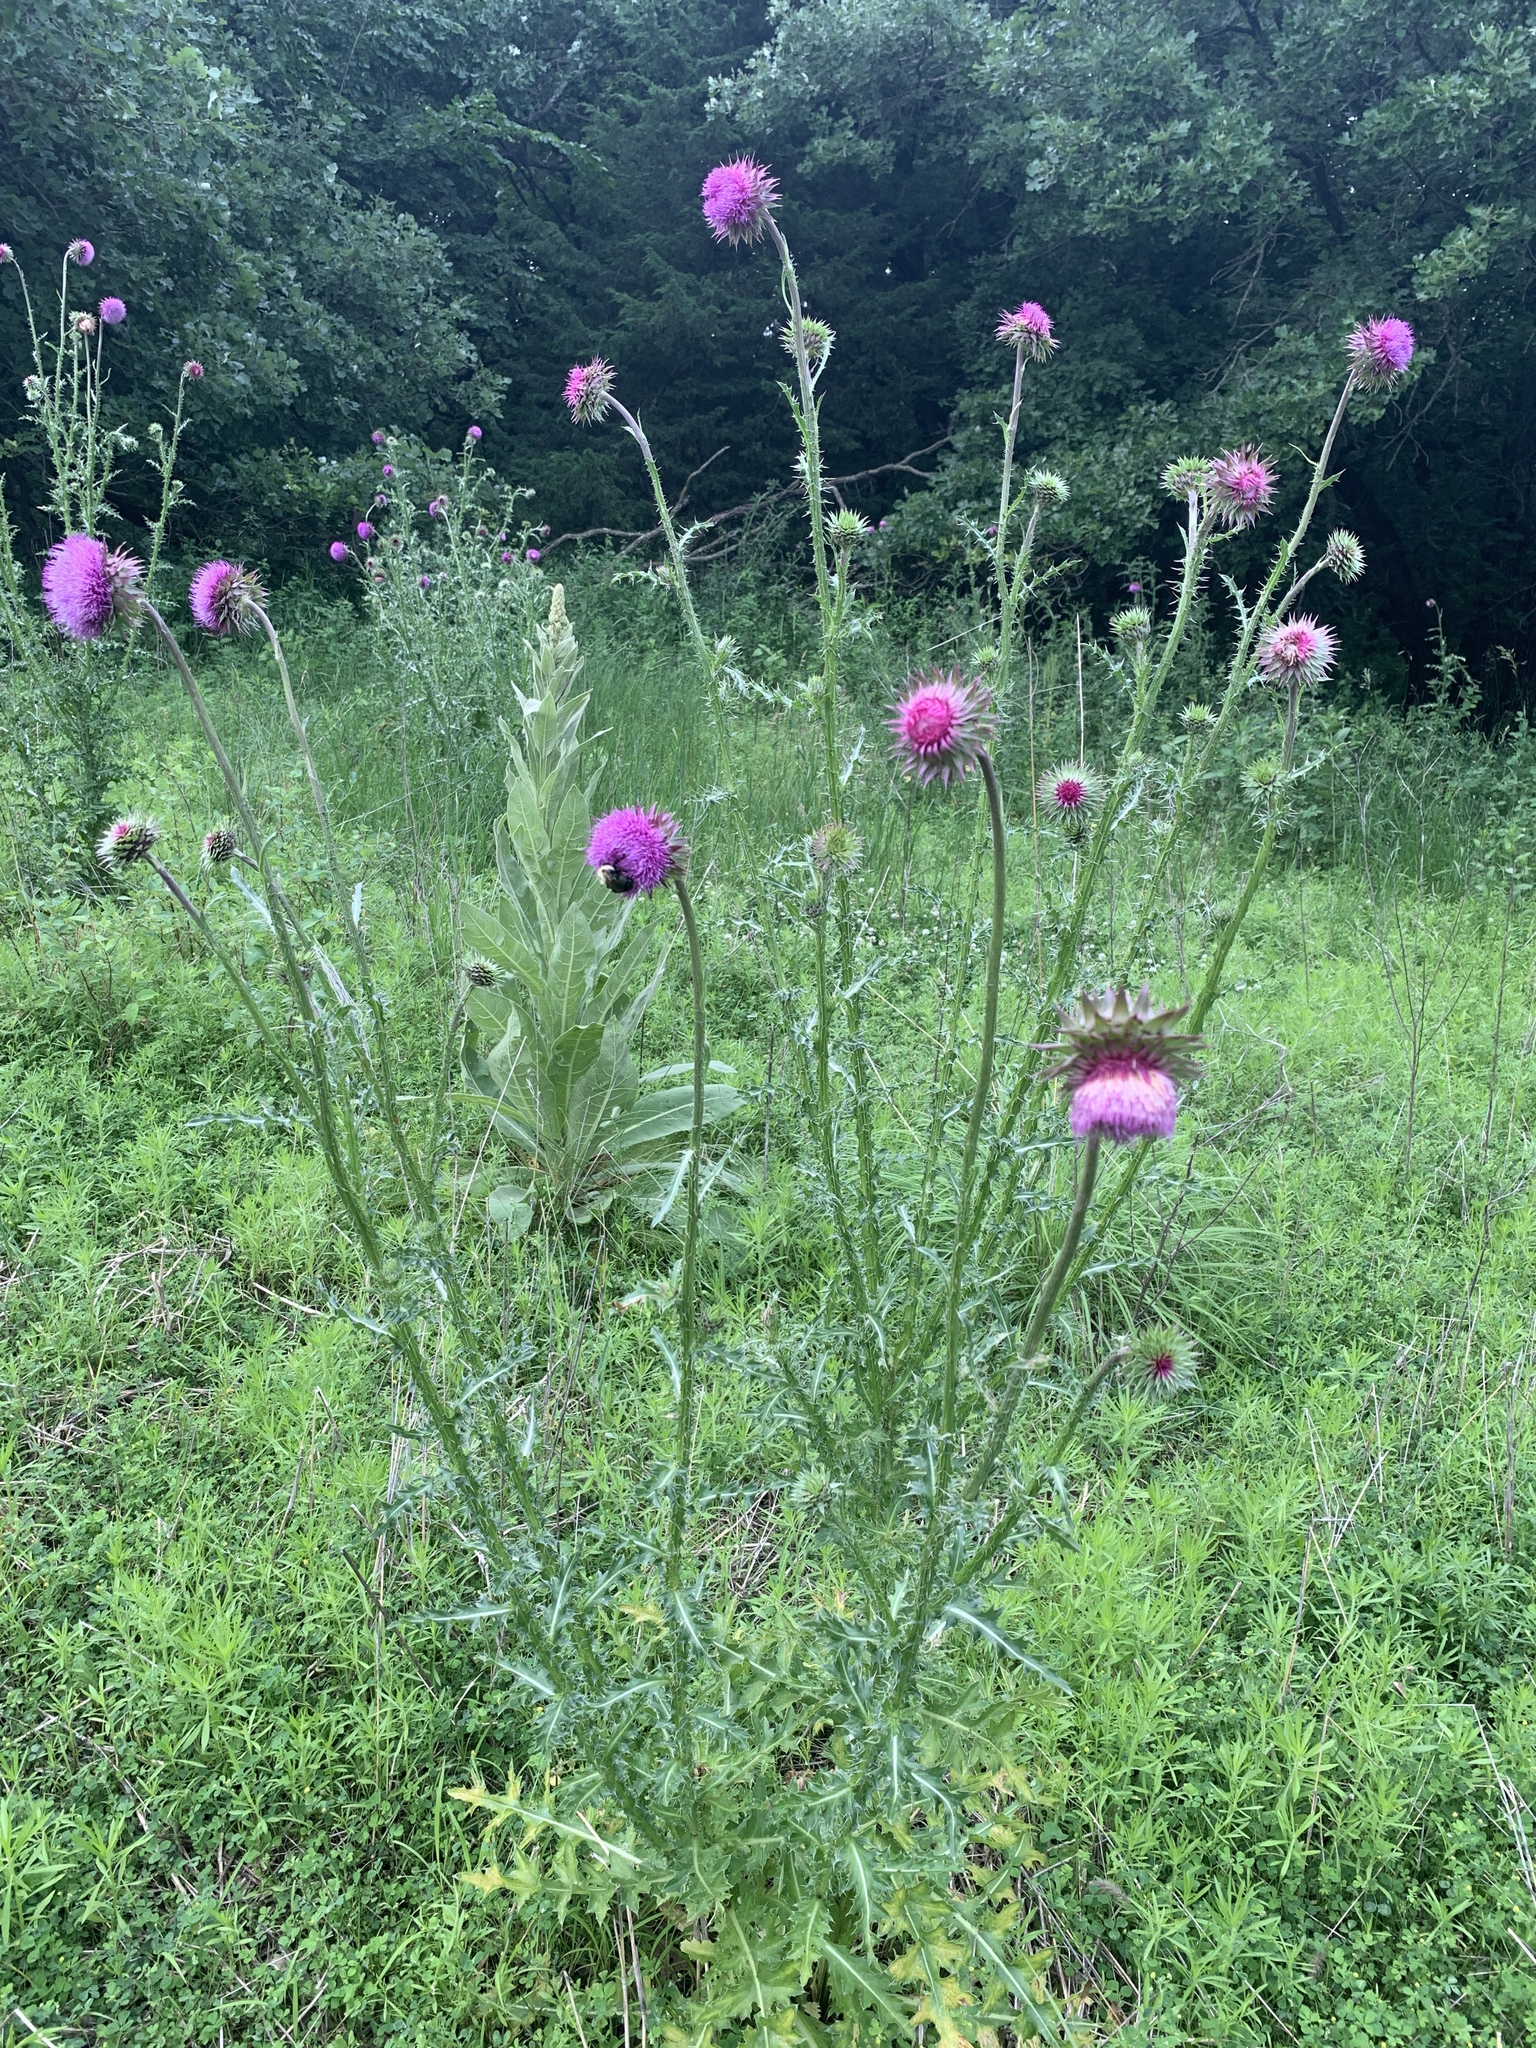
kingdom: Plantae
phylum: Tracheophyta
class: Magnoliopsida
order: Asterales
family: Asteraceae
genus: Carduus
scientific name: Carduus nutans
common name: Musk thistle
